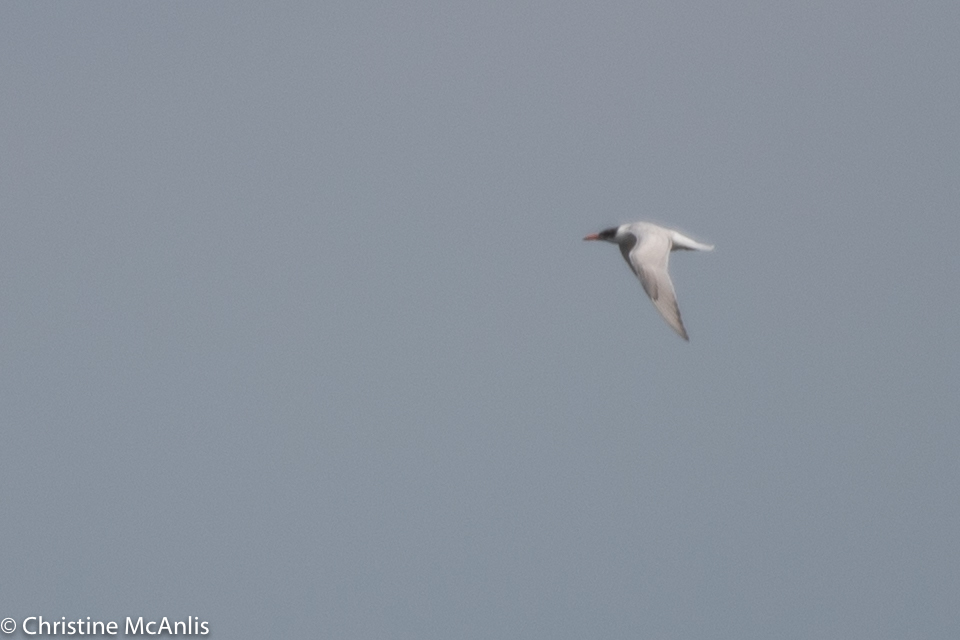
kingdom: Animalia
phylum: Chordata
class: Aves
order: Charadriiformes
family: Laridae
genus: Hydroprogne
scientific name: Hydroprogne caspia
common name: Caspian tern
